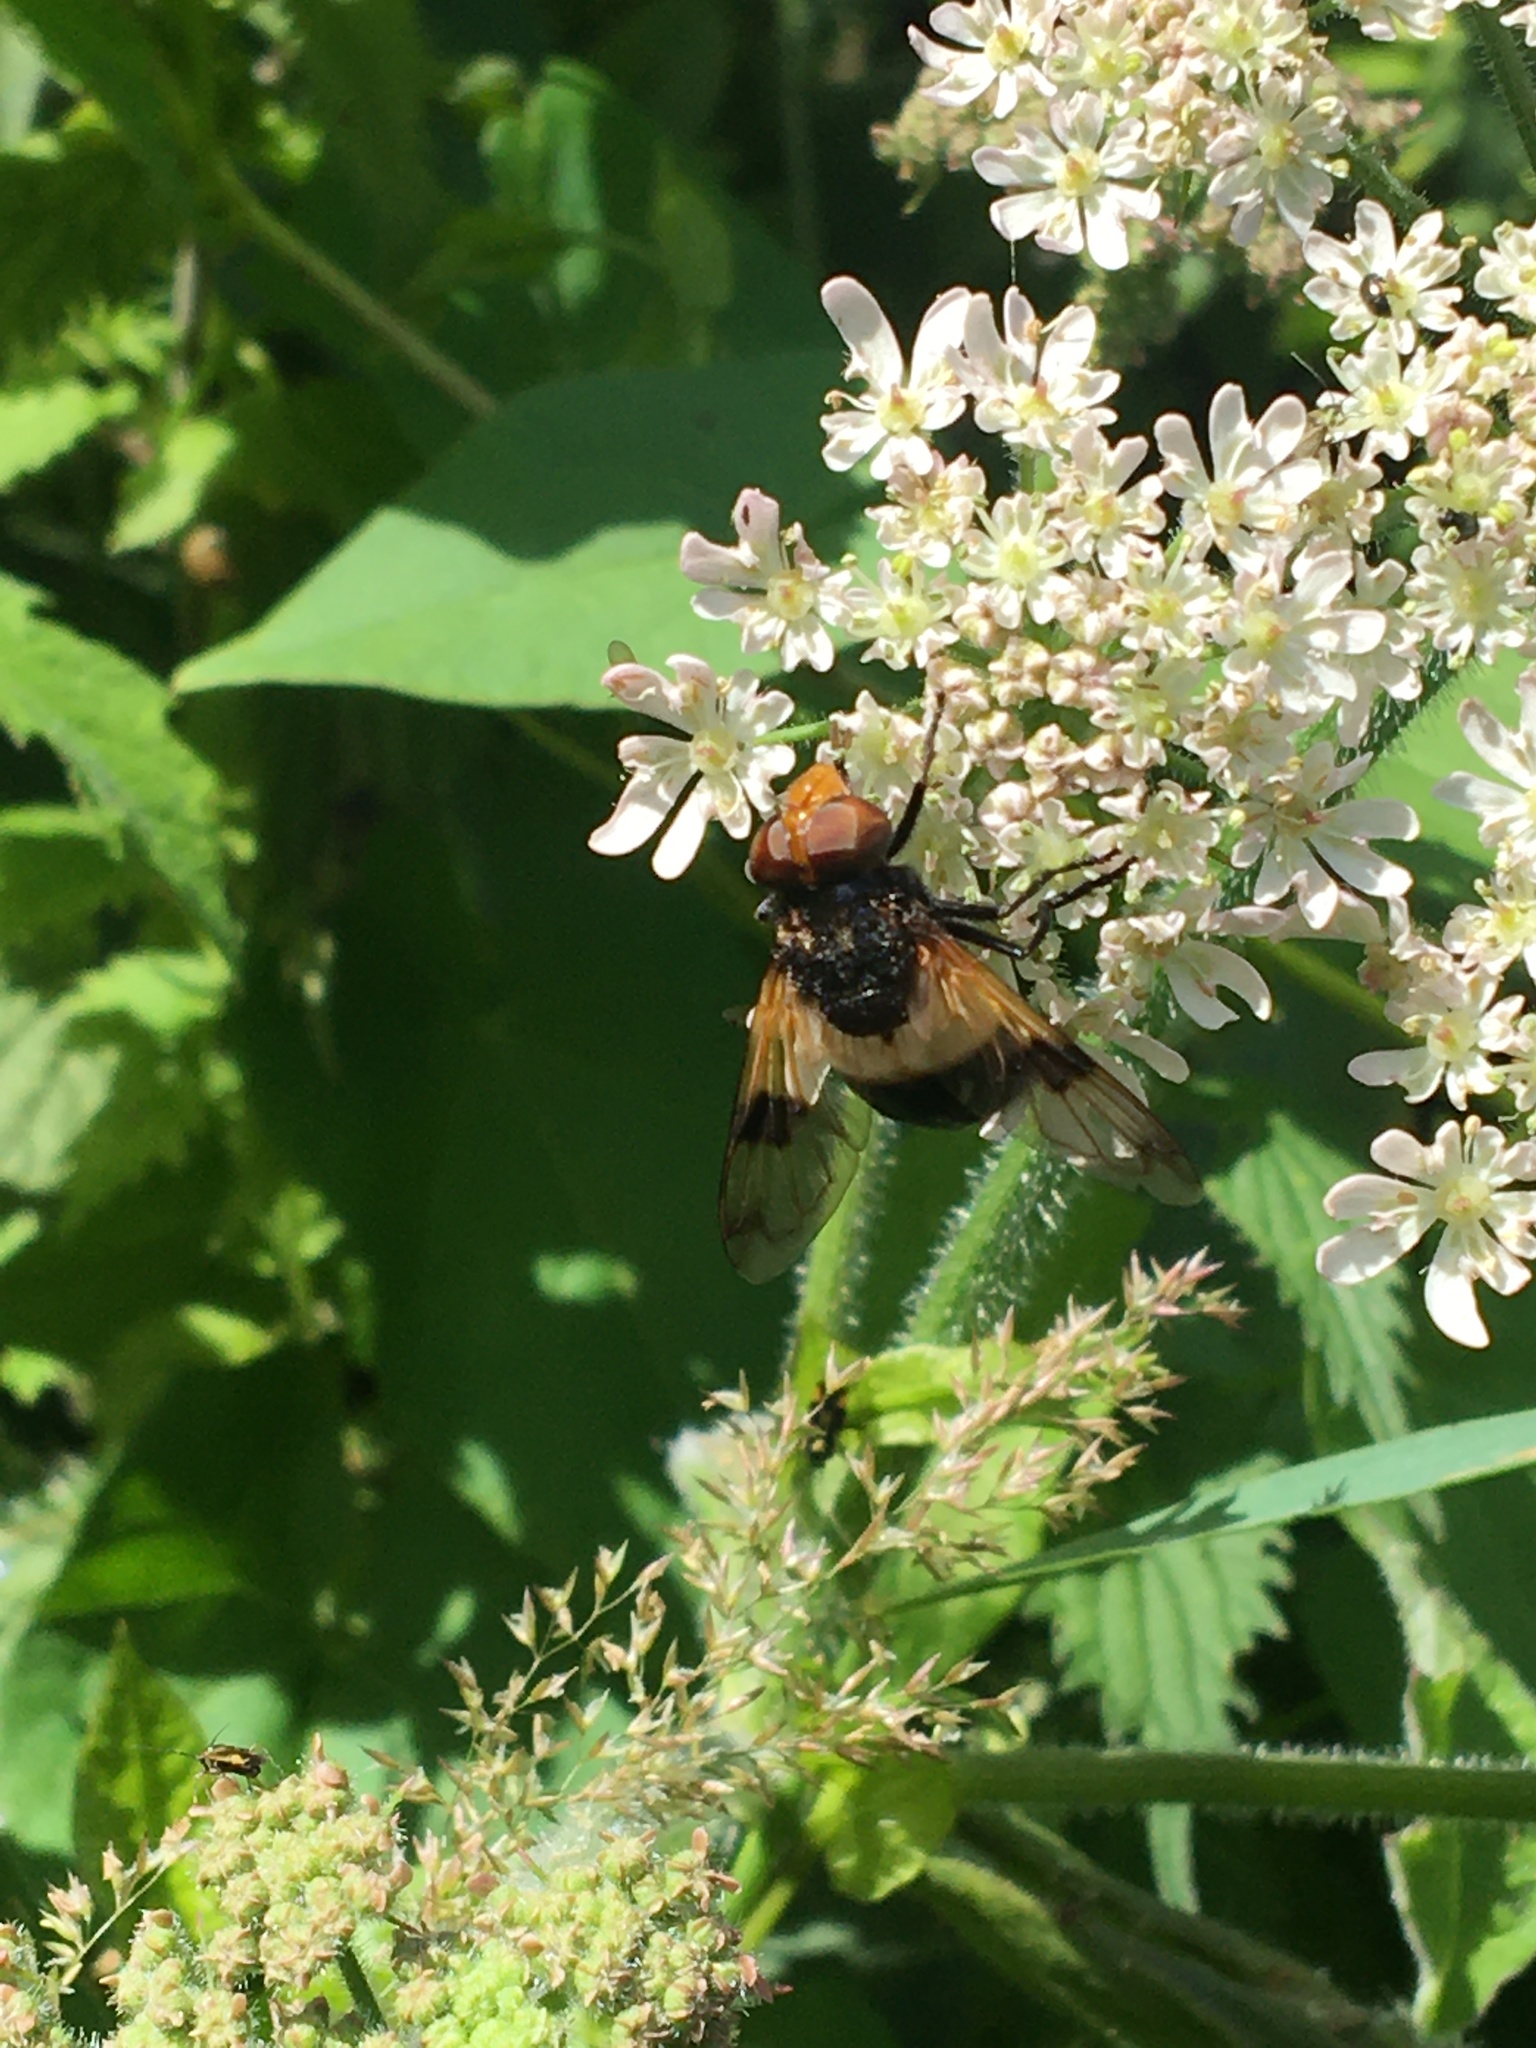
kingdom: Animalia
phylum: Arthropoda
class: Insecta
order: Diptera
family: Syrphidae
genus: Volucella
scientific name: Volucella pellucens
